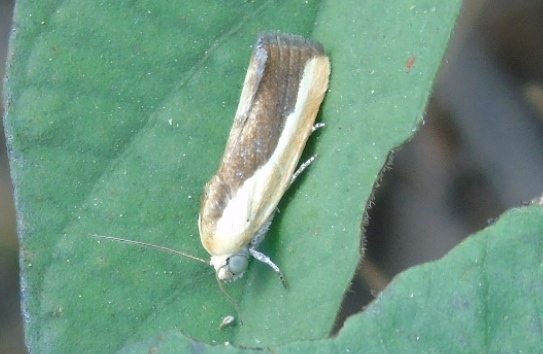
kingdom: Animalia
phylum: Arthropoda
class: Insecta
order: Lepidoptera
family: Noctuidae
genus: Acontia
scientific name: Acontia exigua
